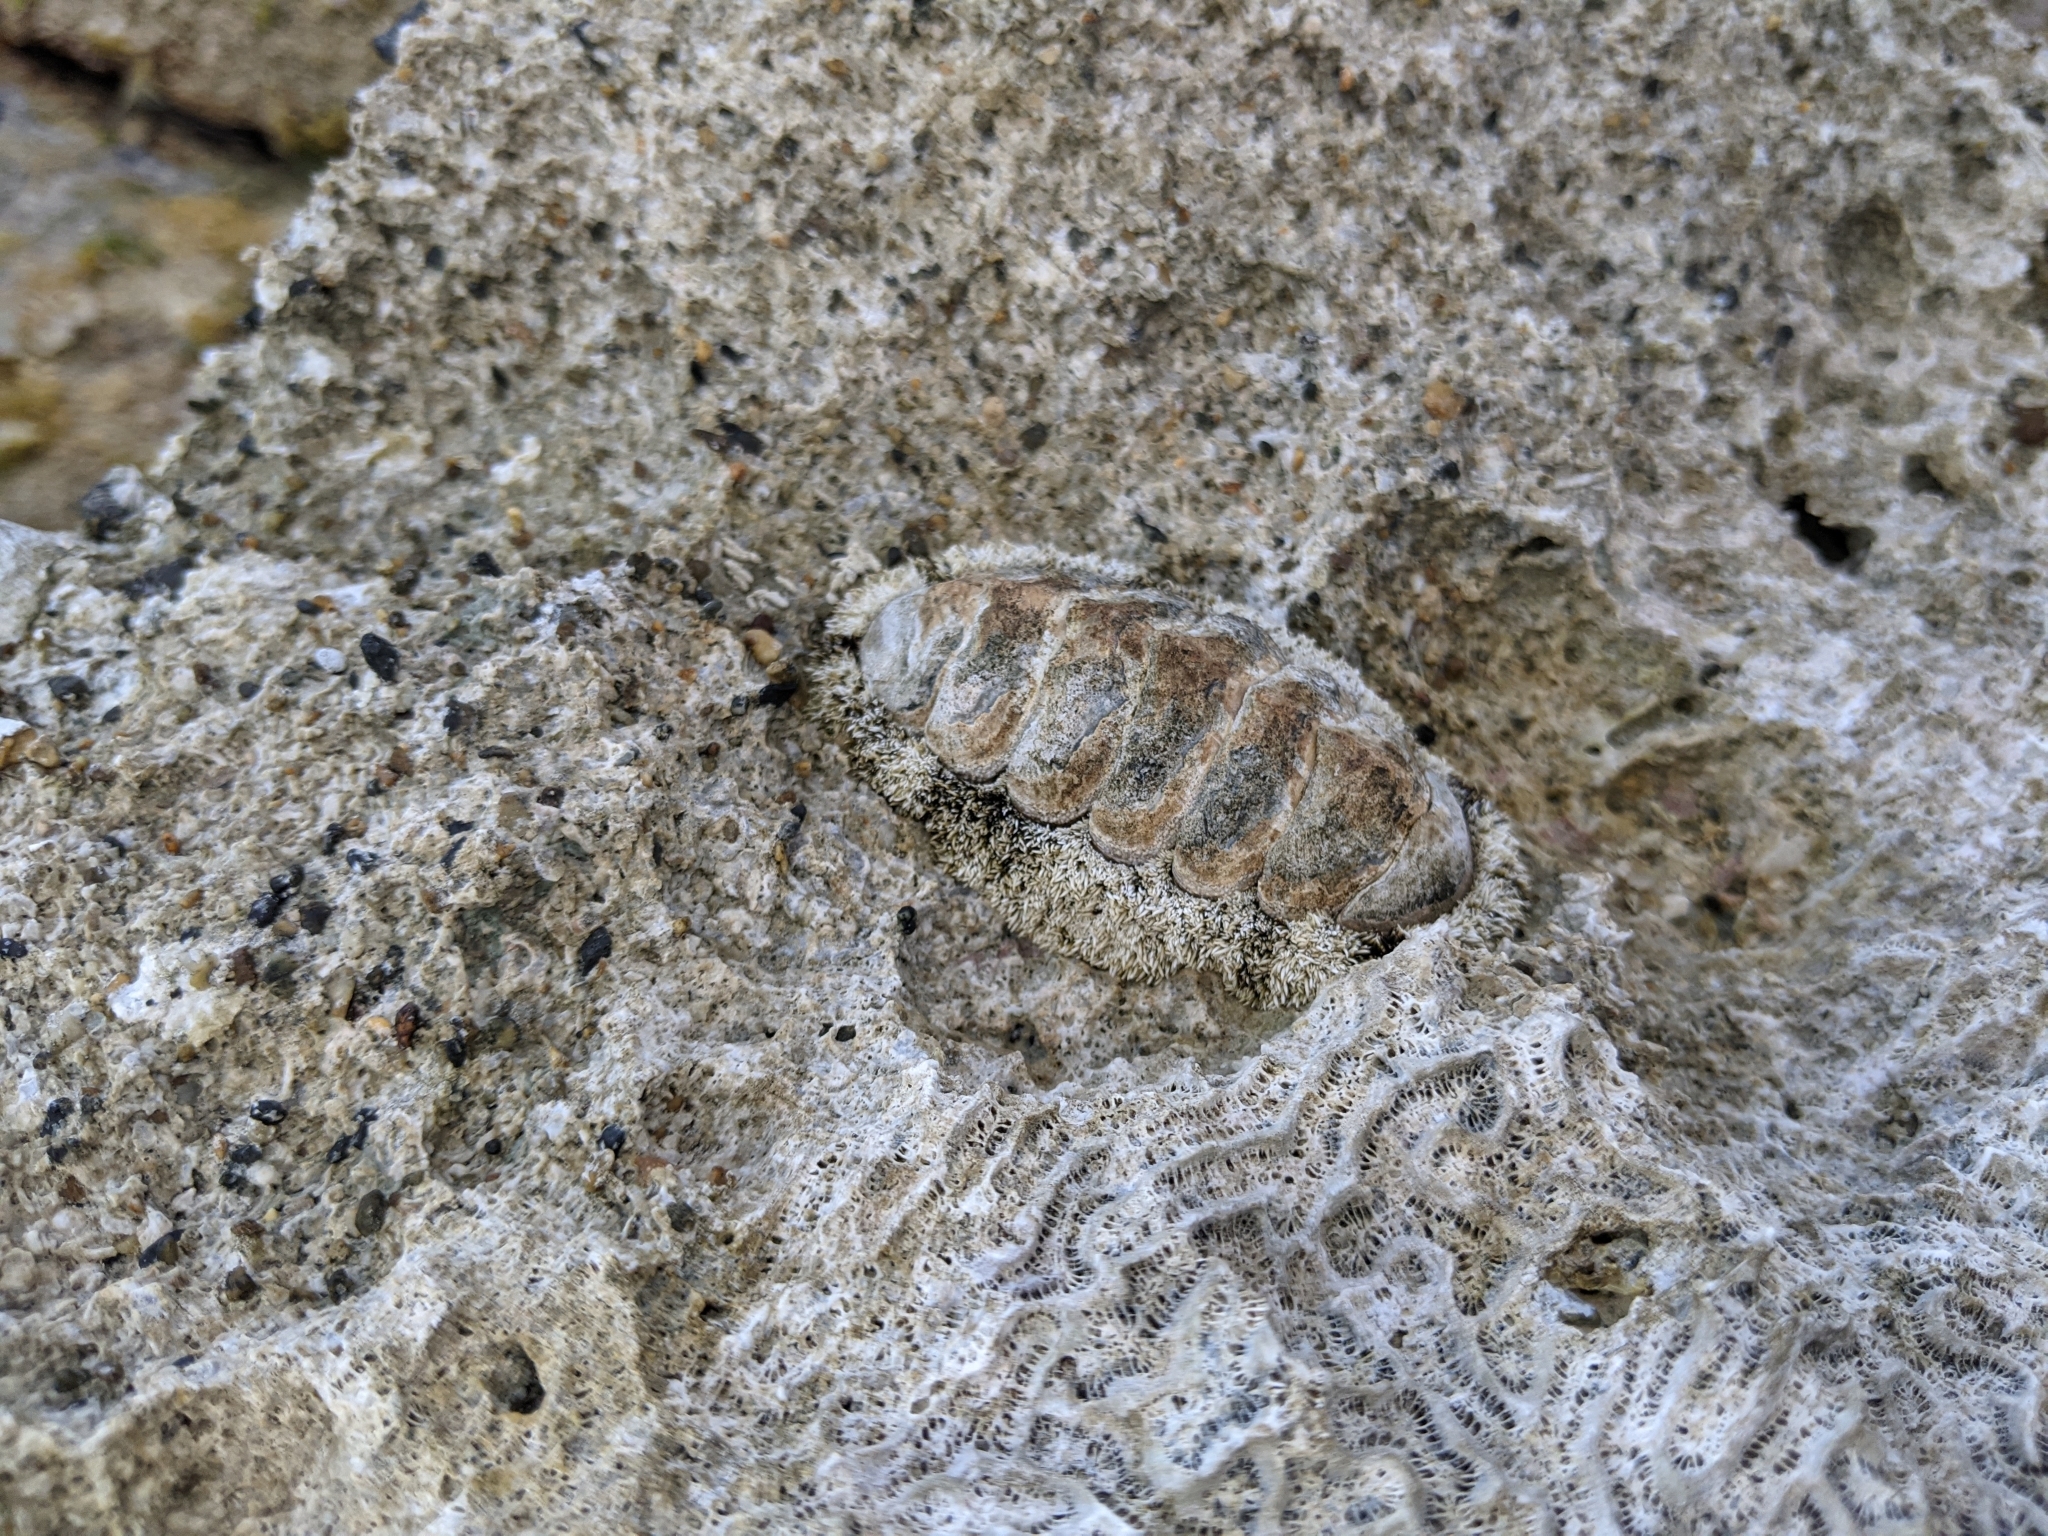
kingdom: Animalia
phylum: Mollusca
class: Polyplacophora
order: Chitonida
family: Chitonidae
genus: Acanthopleura
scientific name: Acanthopleura granulata
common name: West indian fuzzy chiton
